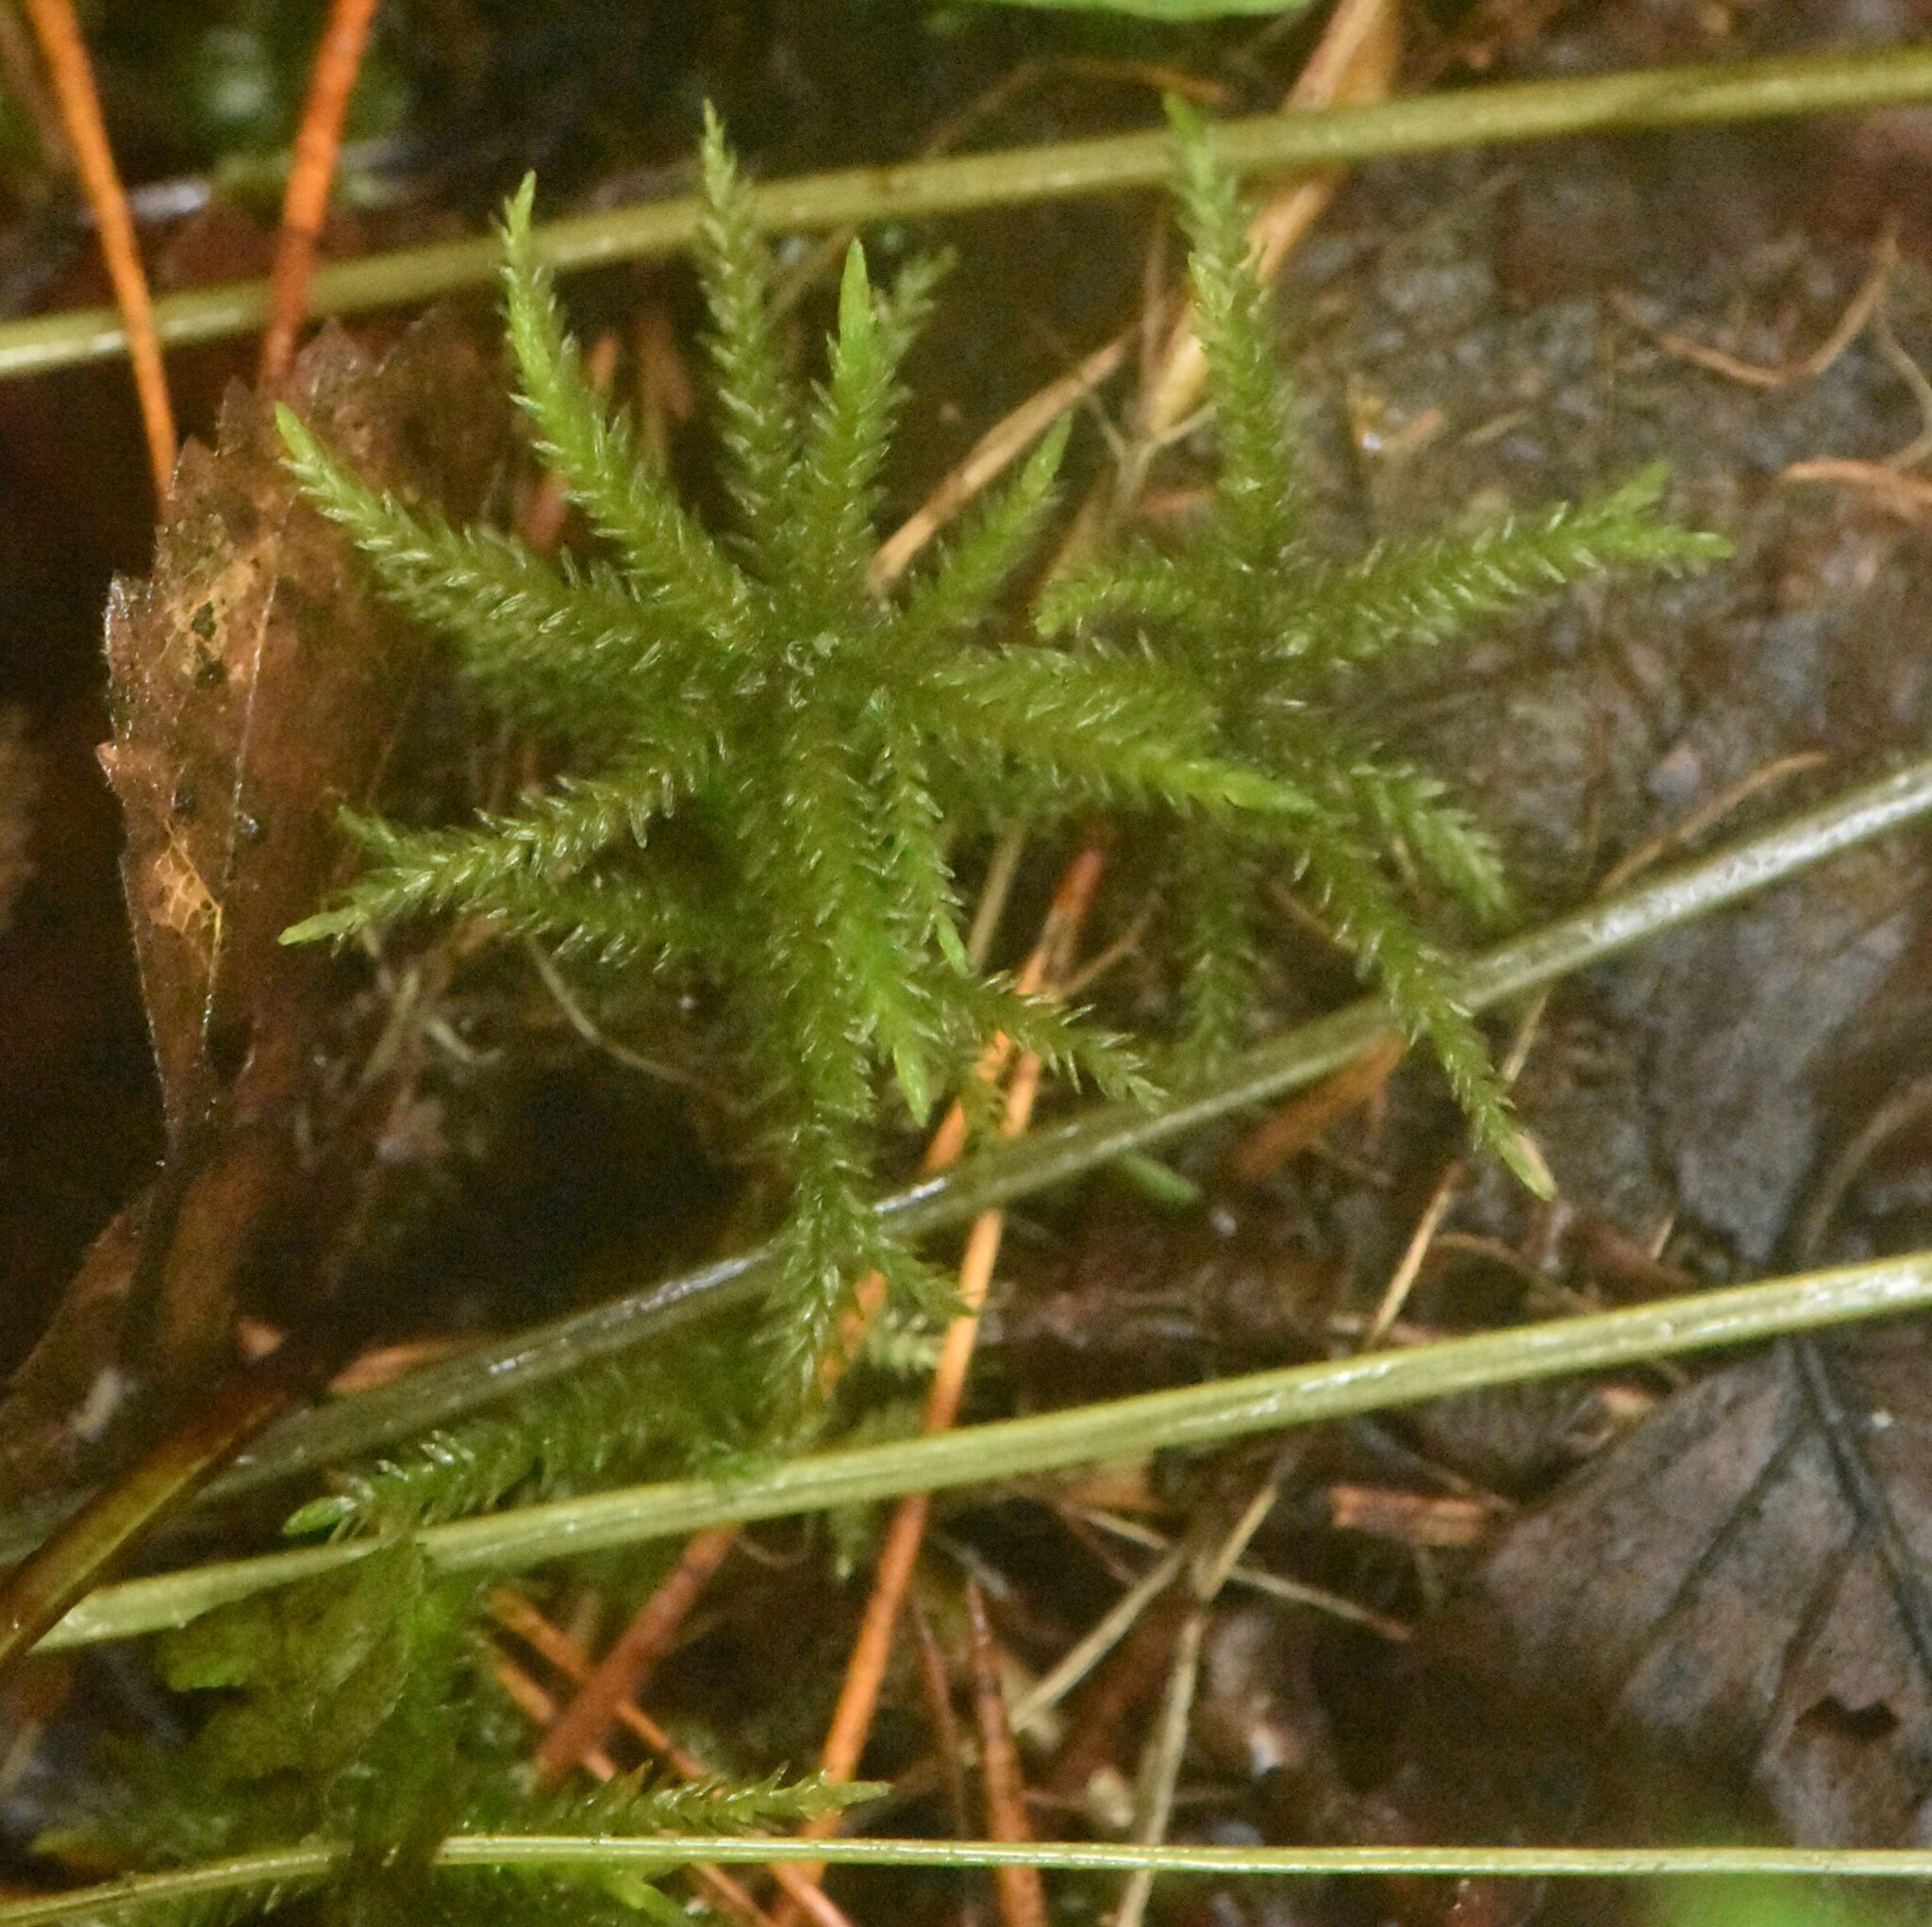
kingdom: Plantae
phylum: Bryophyta
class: Bryopsida
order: Hypnales
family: Climaciaceae
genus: Climacium
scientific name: Climacium dendroides
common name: Northern tree moss
